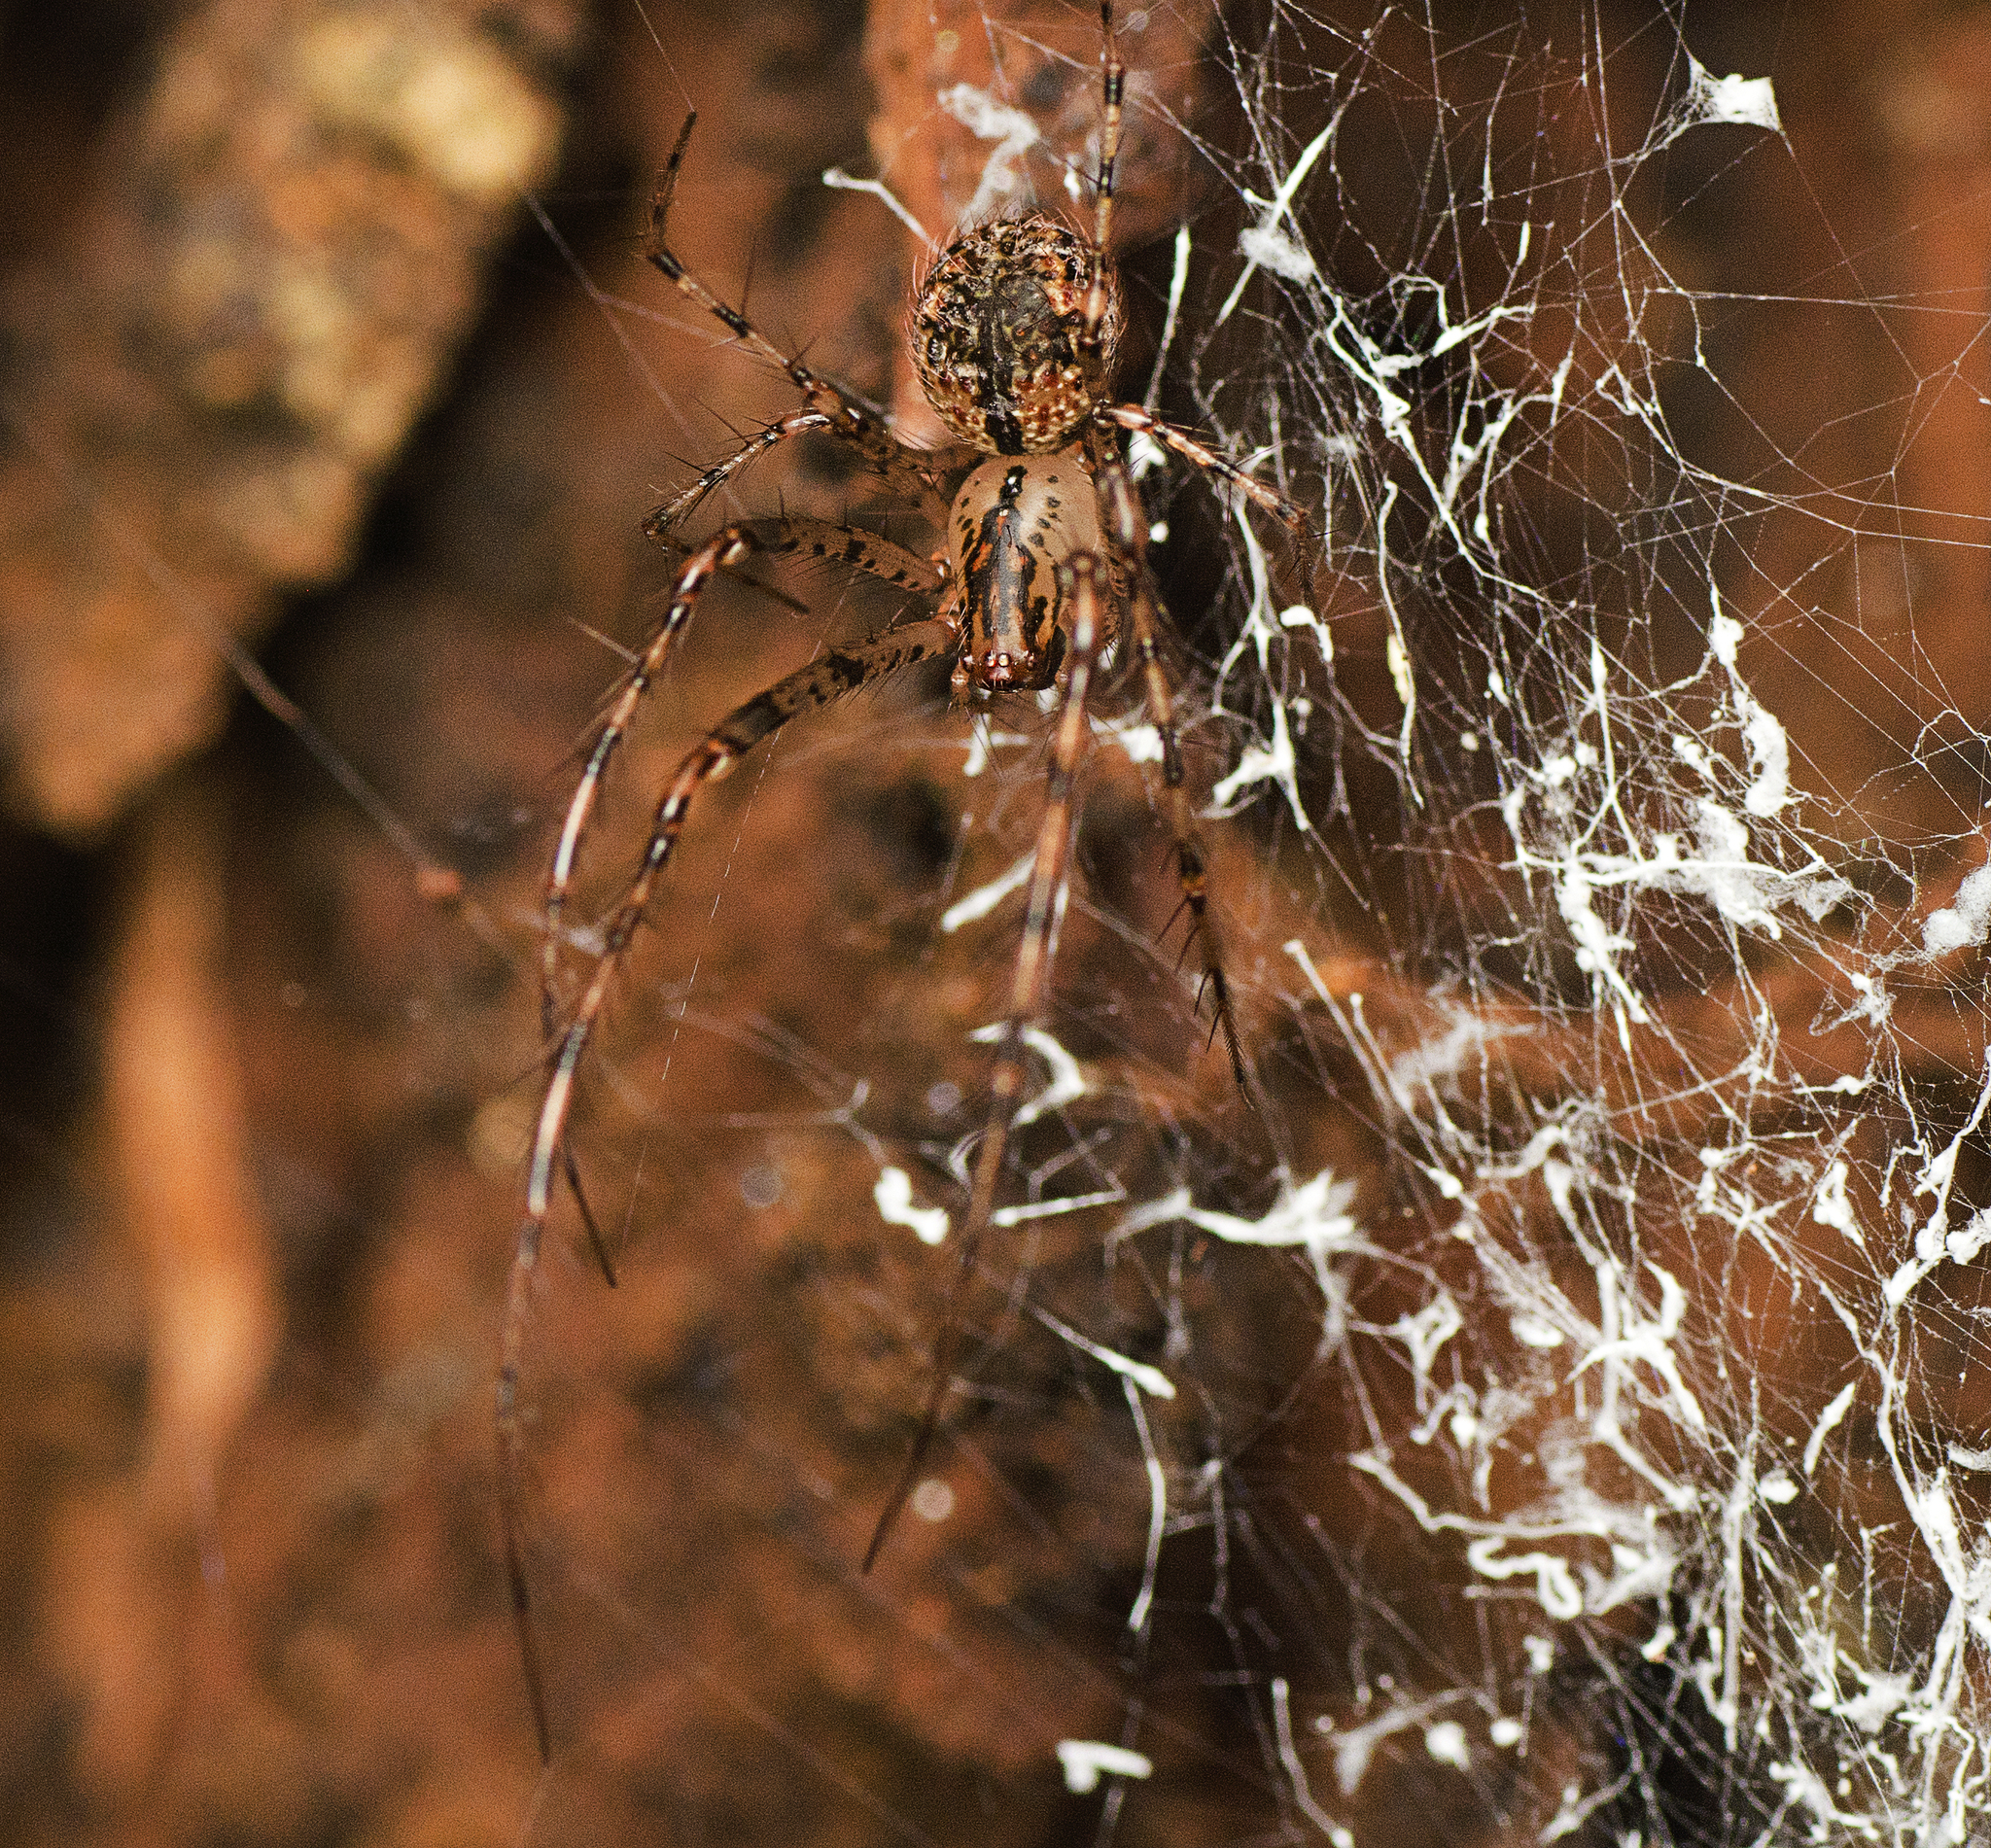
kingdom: Animalia
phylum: Arthropoda
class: Arachnida
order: Araneae
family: Mimetidae
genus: Australomimetus
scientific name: Australomimetus maculosus
